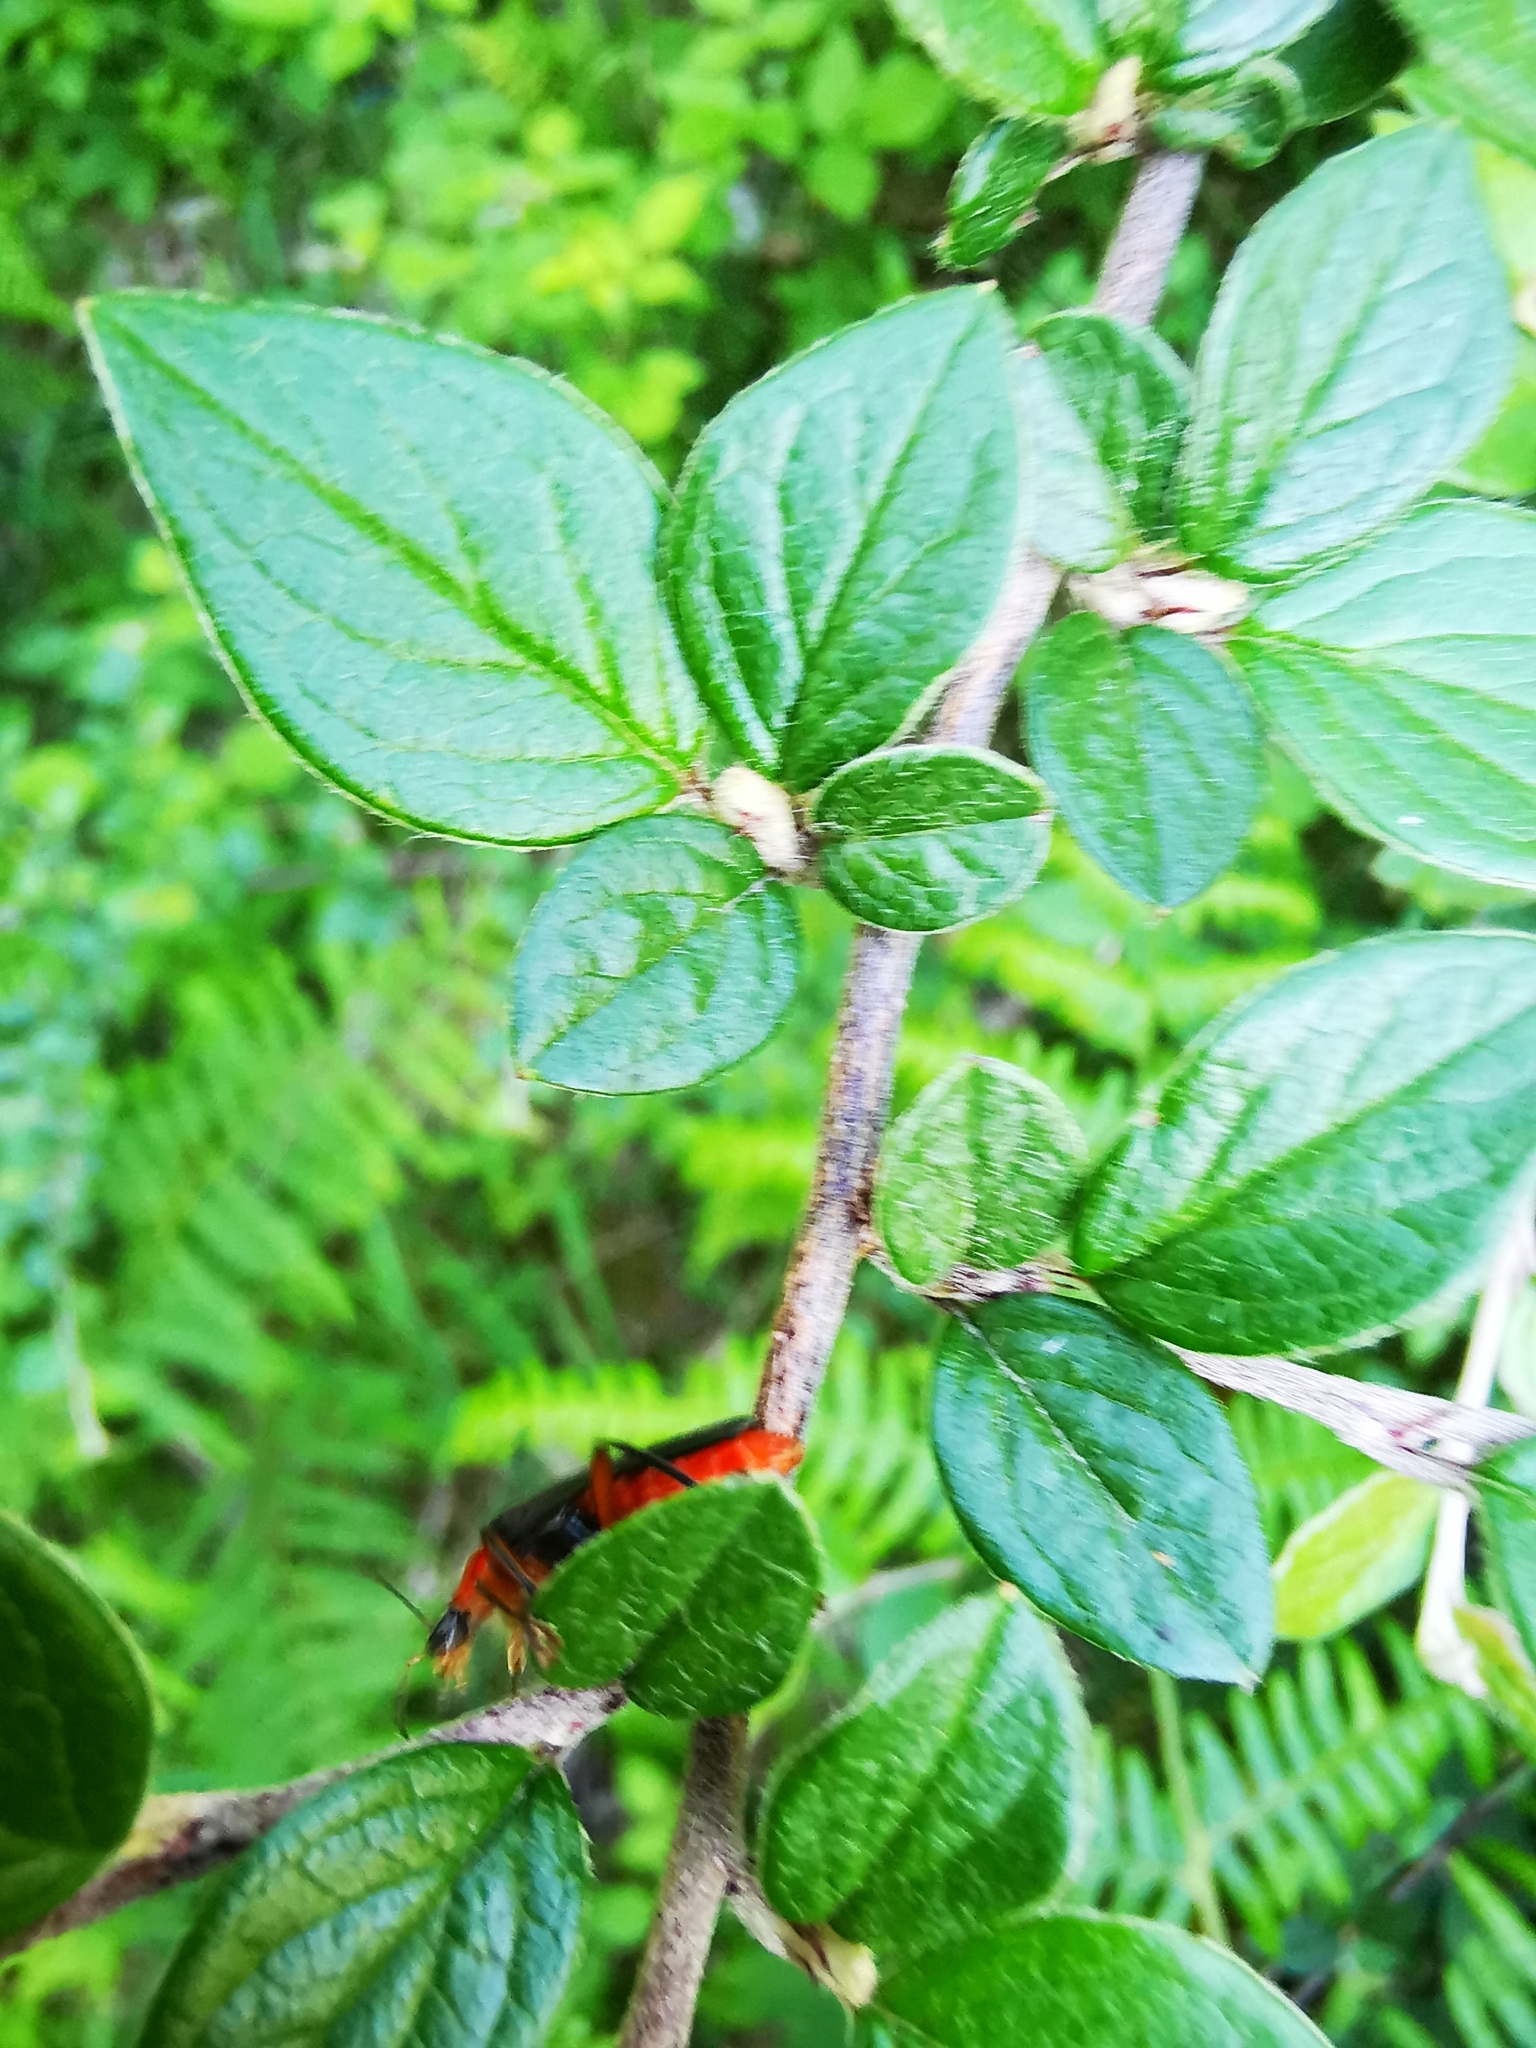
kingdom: Animalia
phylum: Arthropoda
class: Insecta
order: Coleoptera
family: Cantharidae
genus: Cantharis
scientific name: Cantharis pellucida
